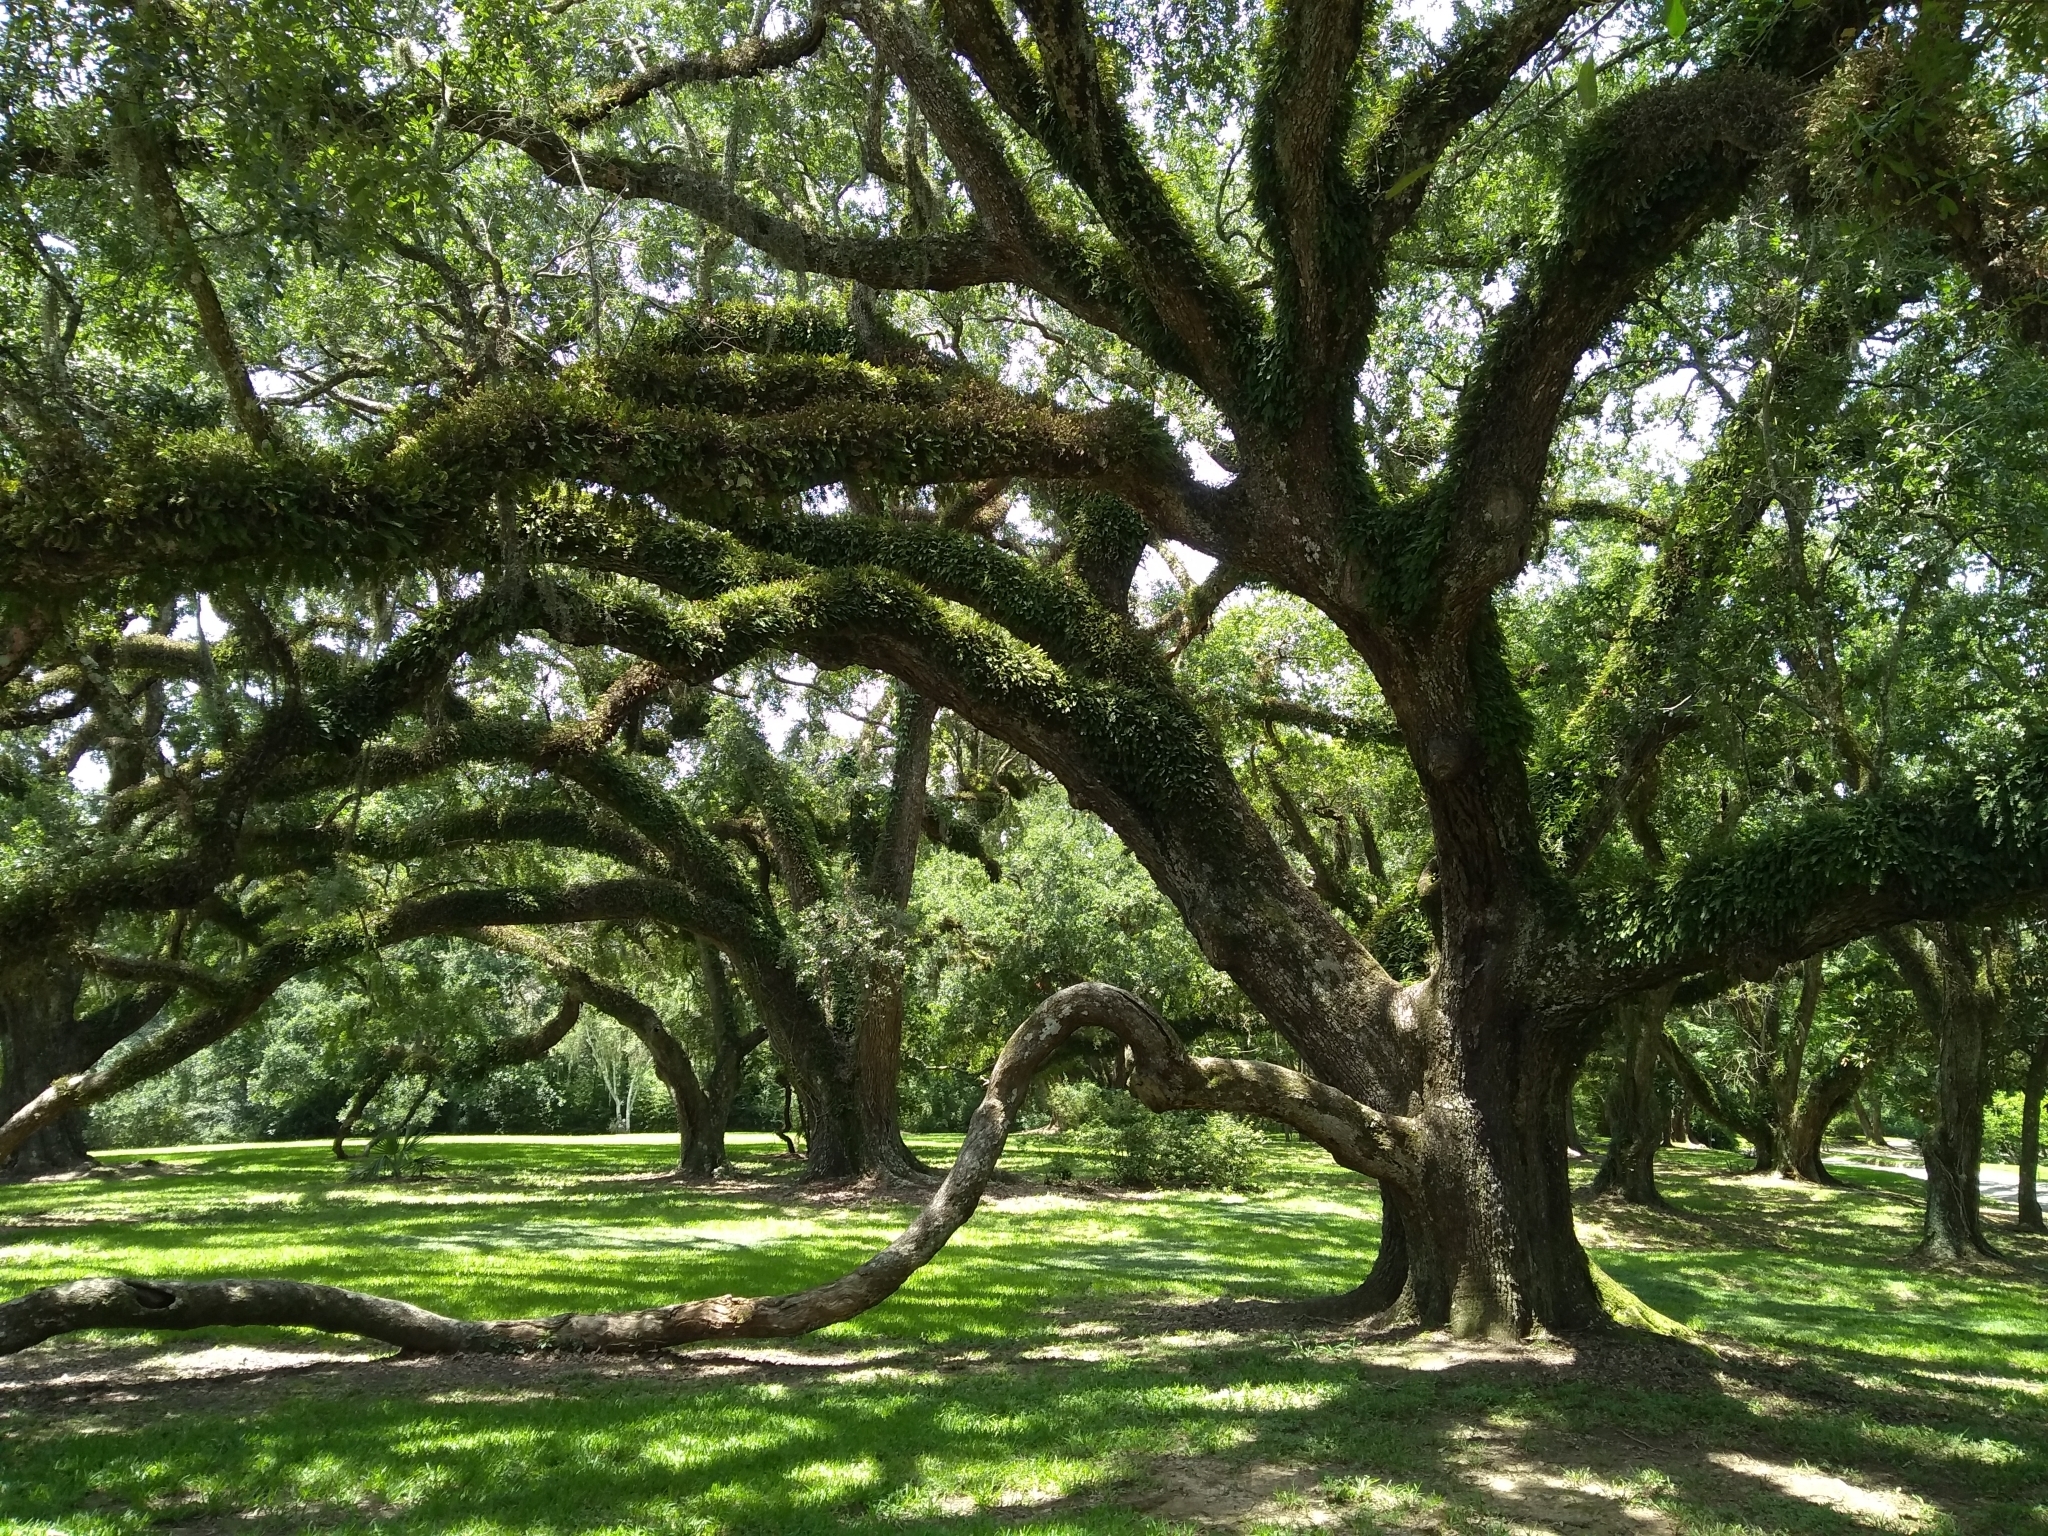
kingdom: Plantae
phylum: Tracheophyta
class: Magnoliopsida
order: Fagales
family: Fagaceae
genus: Quercus
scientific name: Quercus virginiana
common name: Southern live oak
